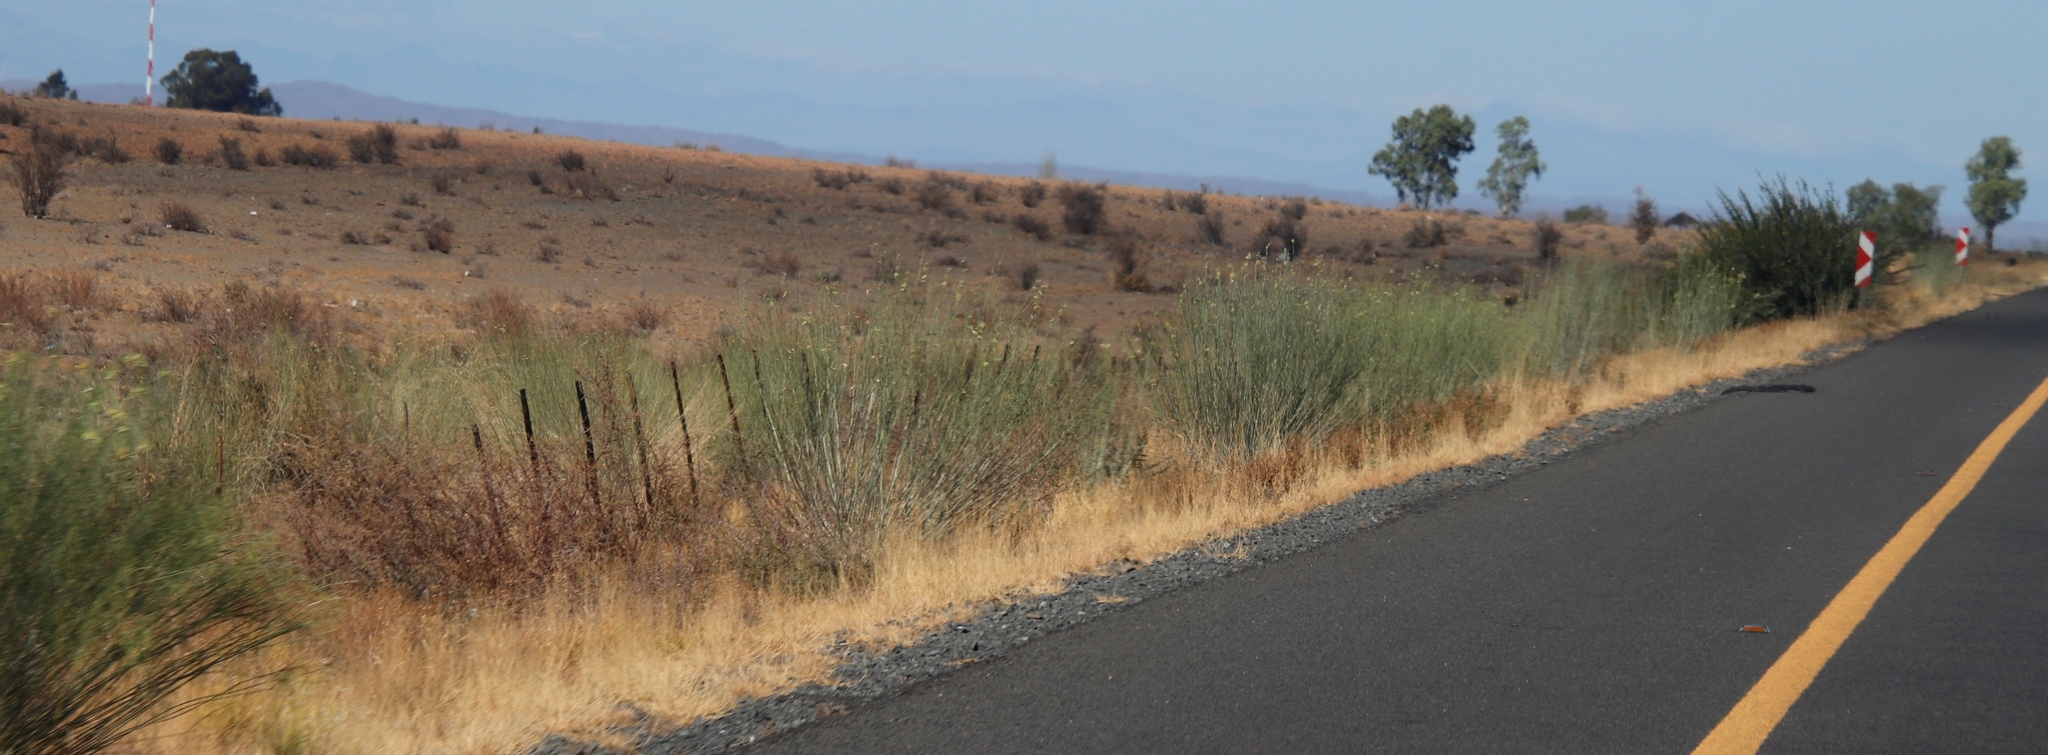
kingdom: Plantae
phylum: Tracheophyta
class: Magnoliopsida
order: Gentianales
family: Apocynaceae
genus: Gomphocarpus
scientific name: Gomphocarpus filiformis
